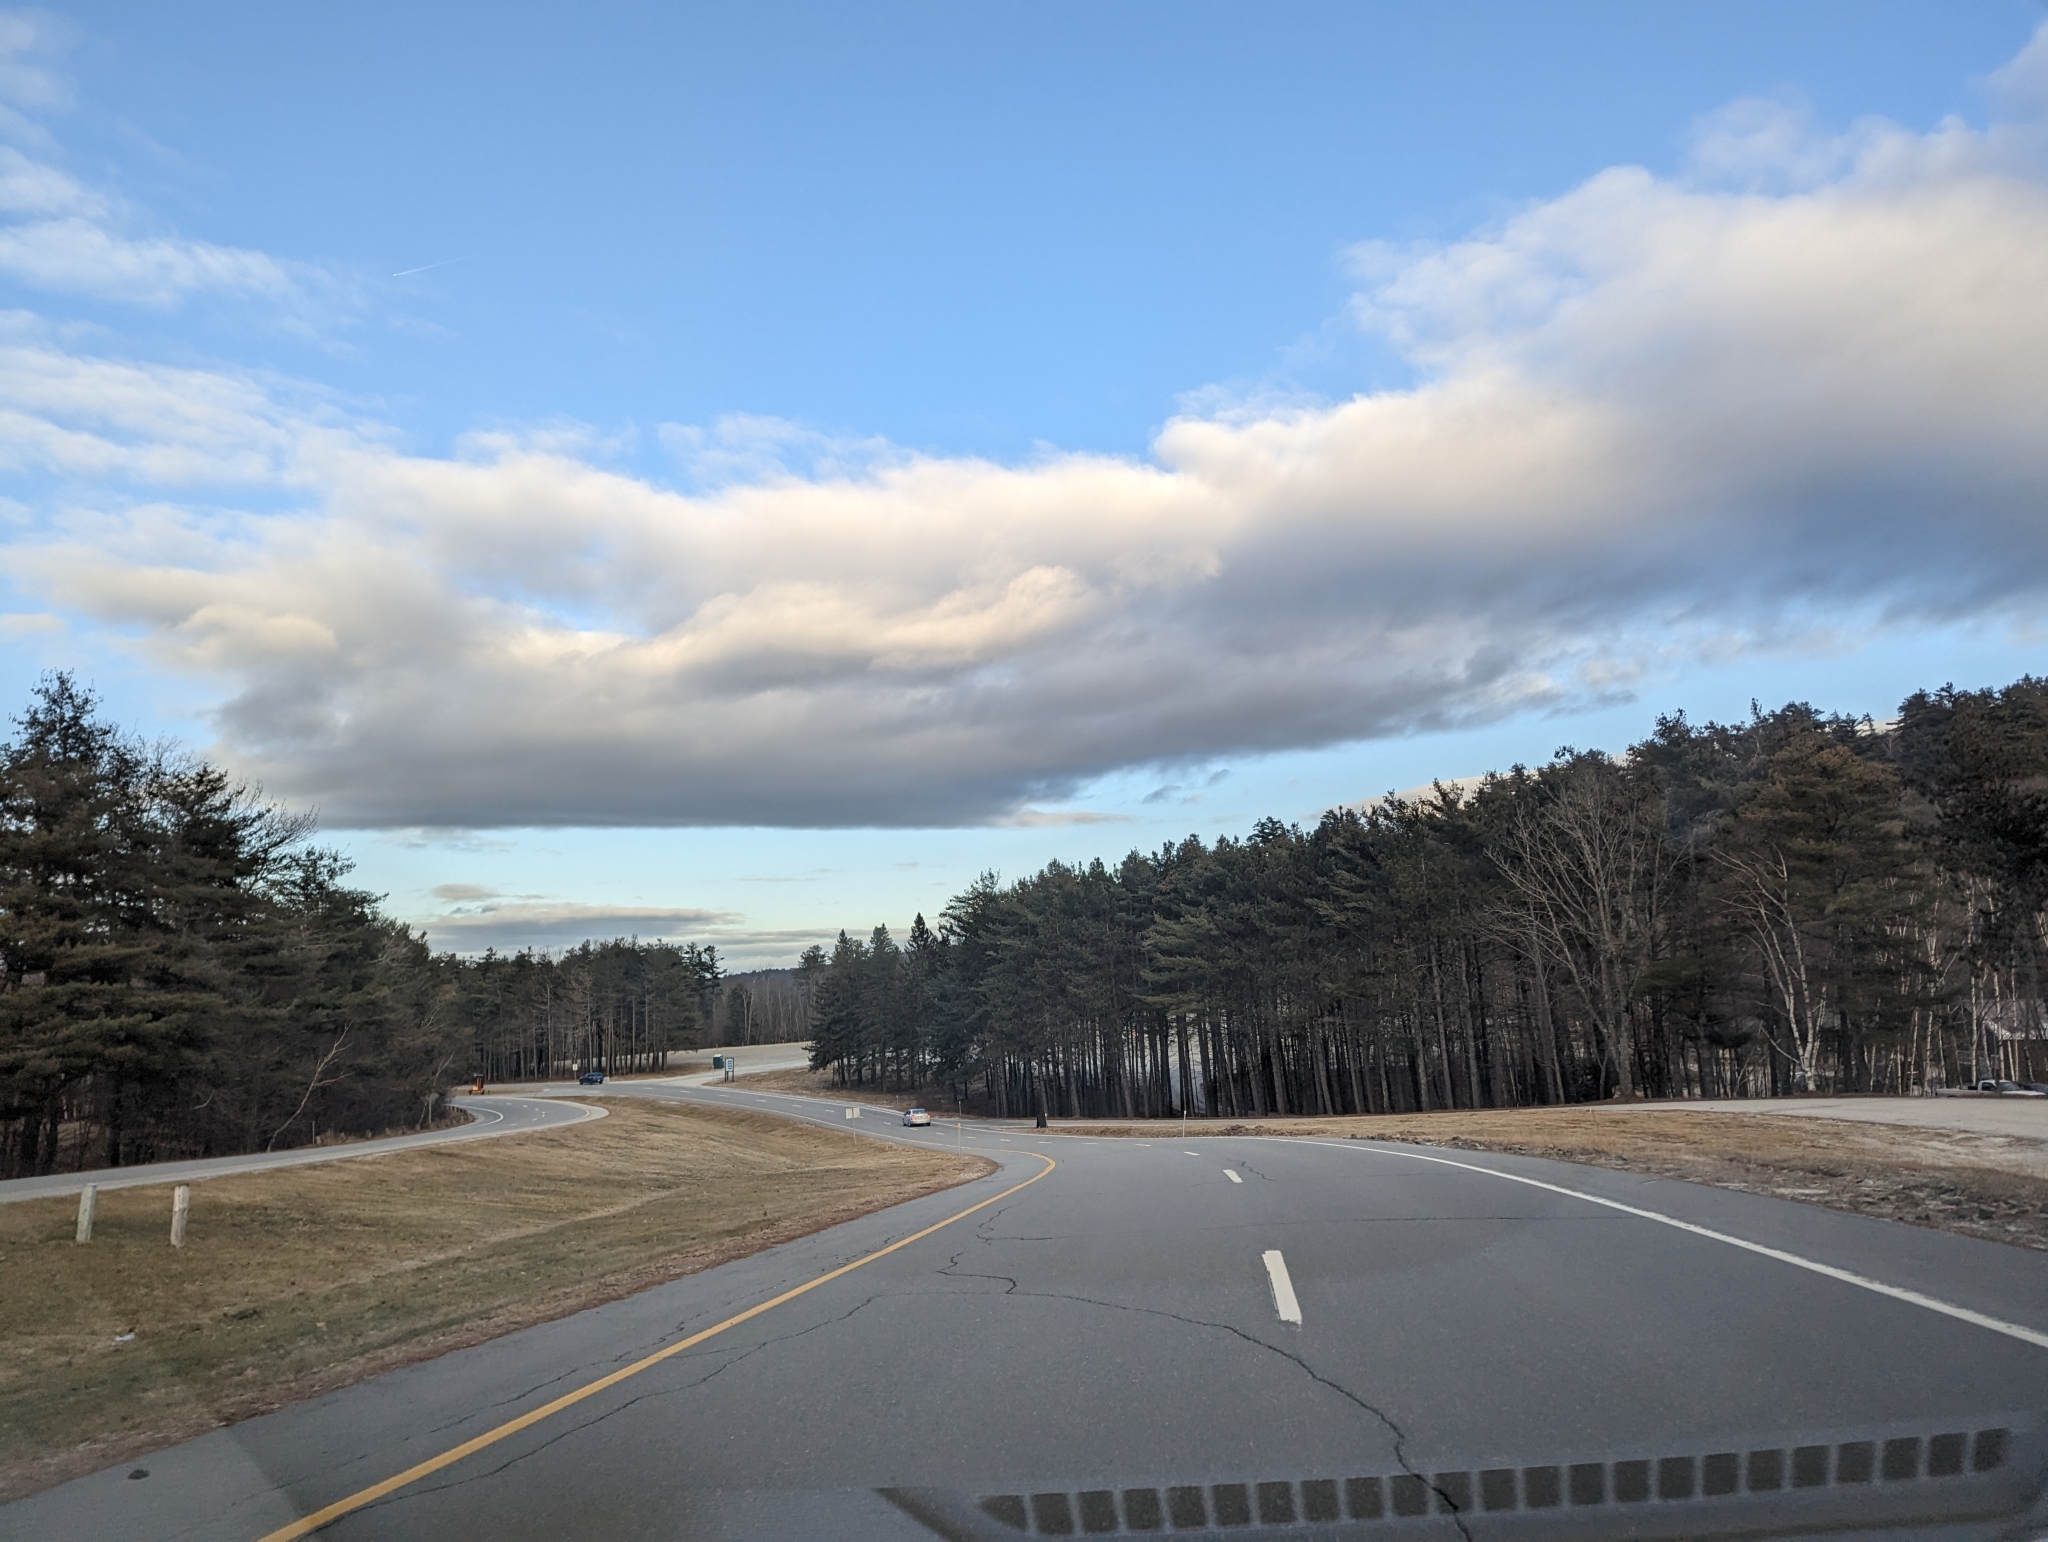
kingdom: Plantae
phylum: Tracheophyta
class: Pinopsida
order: Pinales
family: Pinaceae
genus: Pinus
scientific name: Pinus strobus
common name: Weymouth pine
